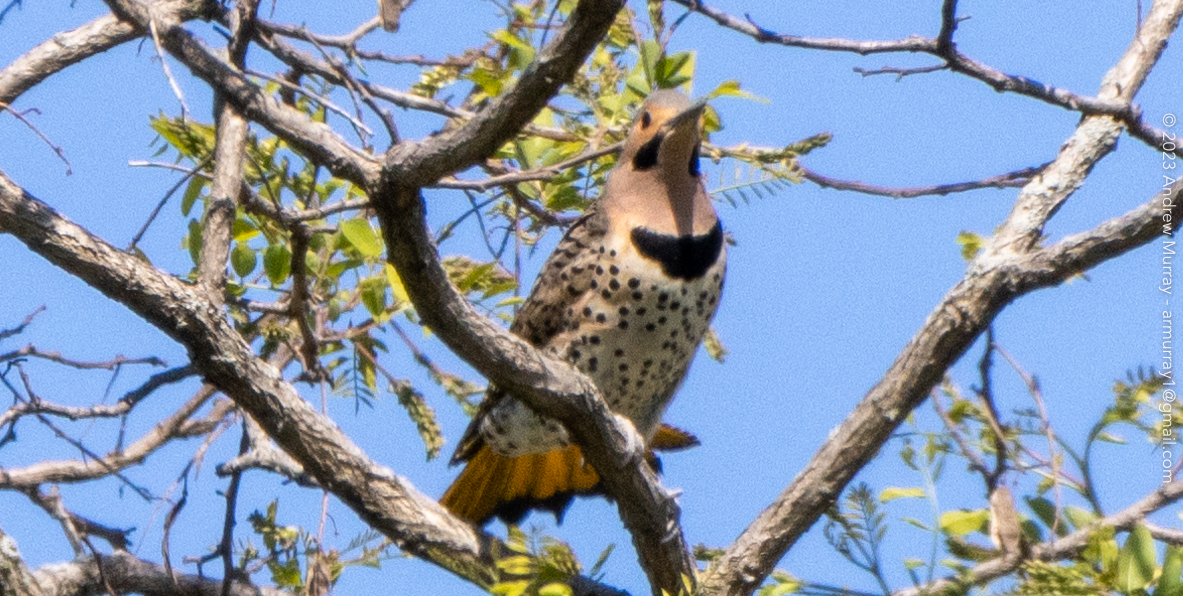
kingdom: Animalia
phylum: Chordata
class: Aves
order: Piciformes
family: Picidae
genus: Colaptes
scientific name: Colaptes auratus
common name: Northern flicker
